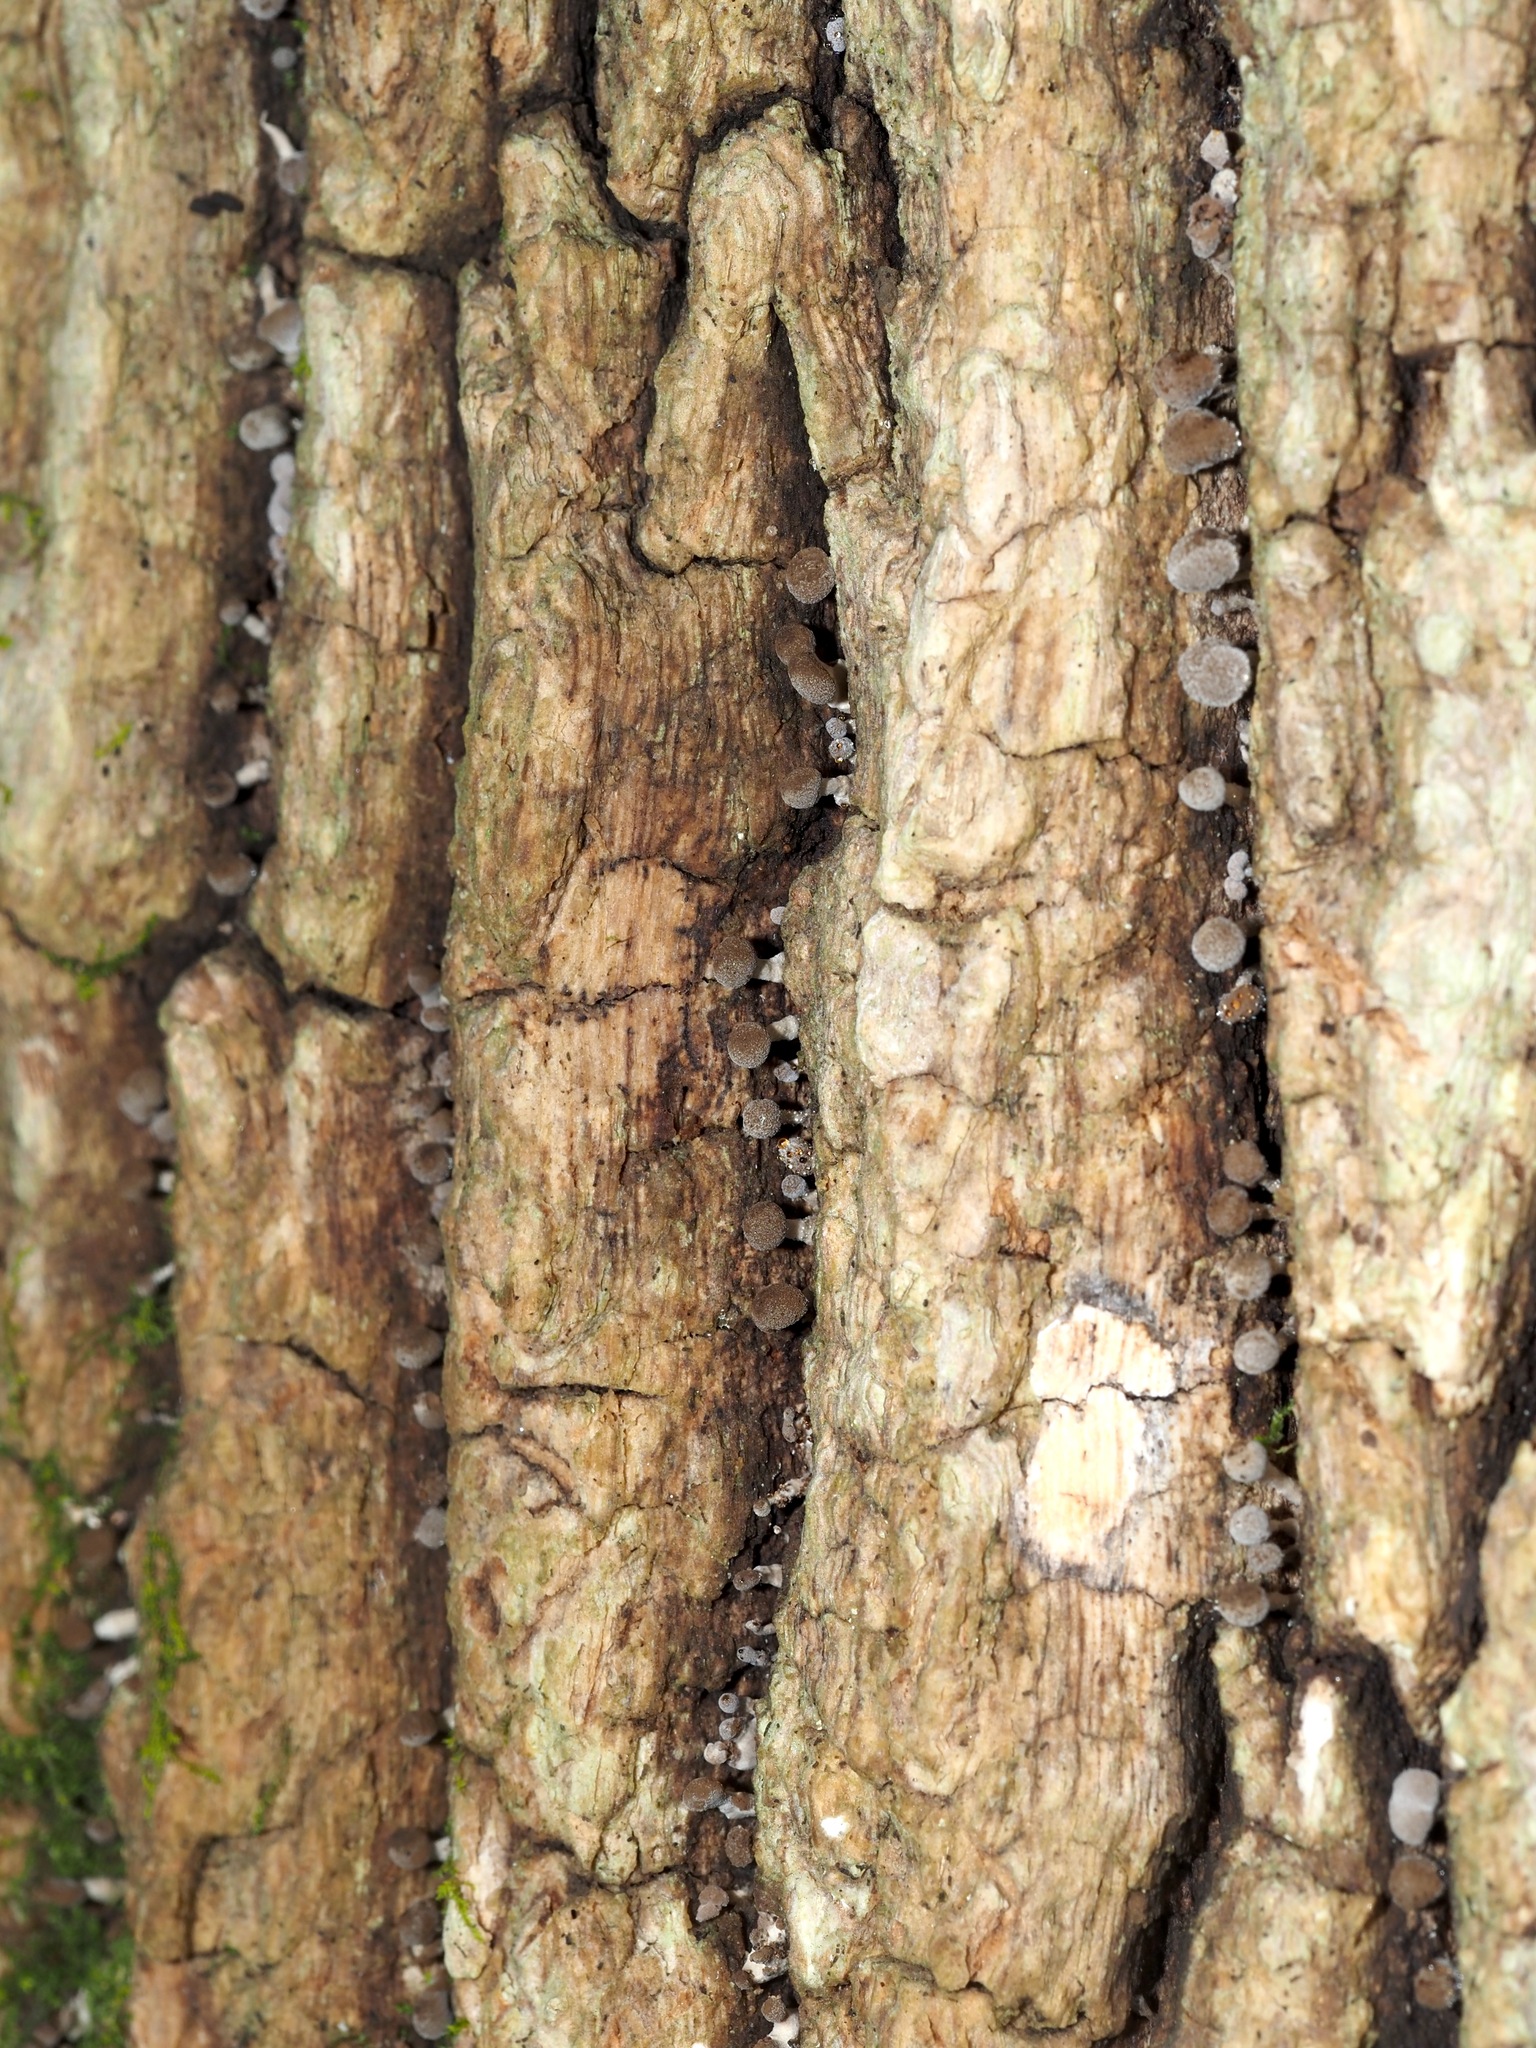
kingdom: Fungi
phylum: Basidiomycota
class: Atractiellomycetes
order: Atractiellales
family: Phleogenaceae
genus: Phleogena
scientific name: Phleogena faginea
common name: Fenugreek stalkball
